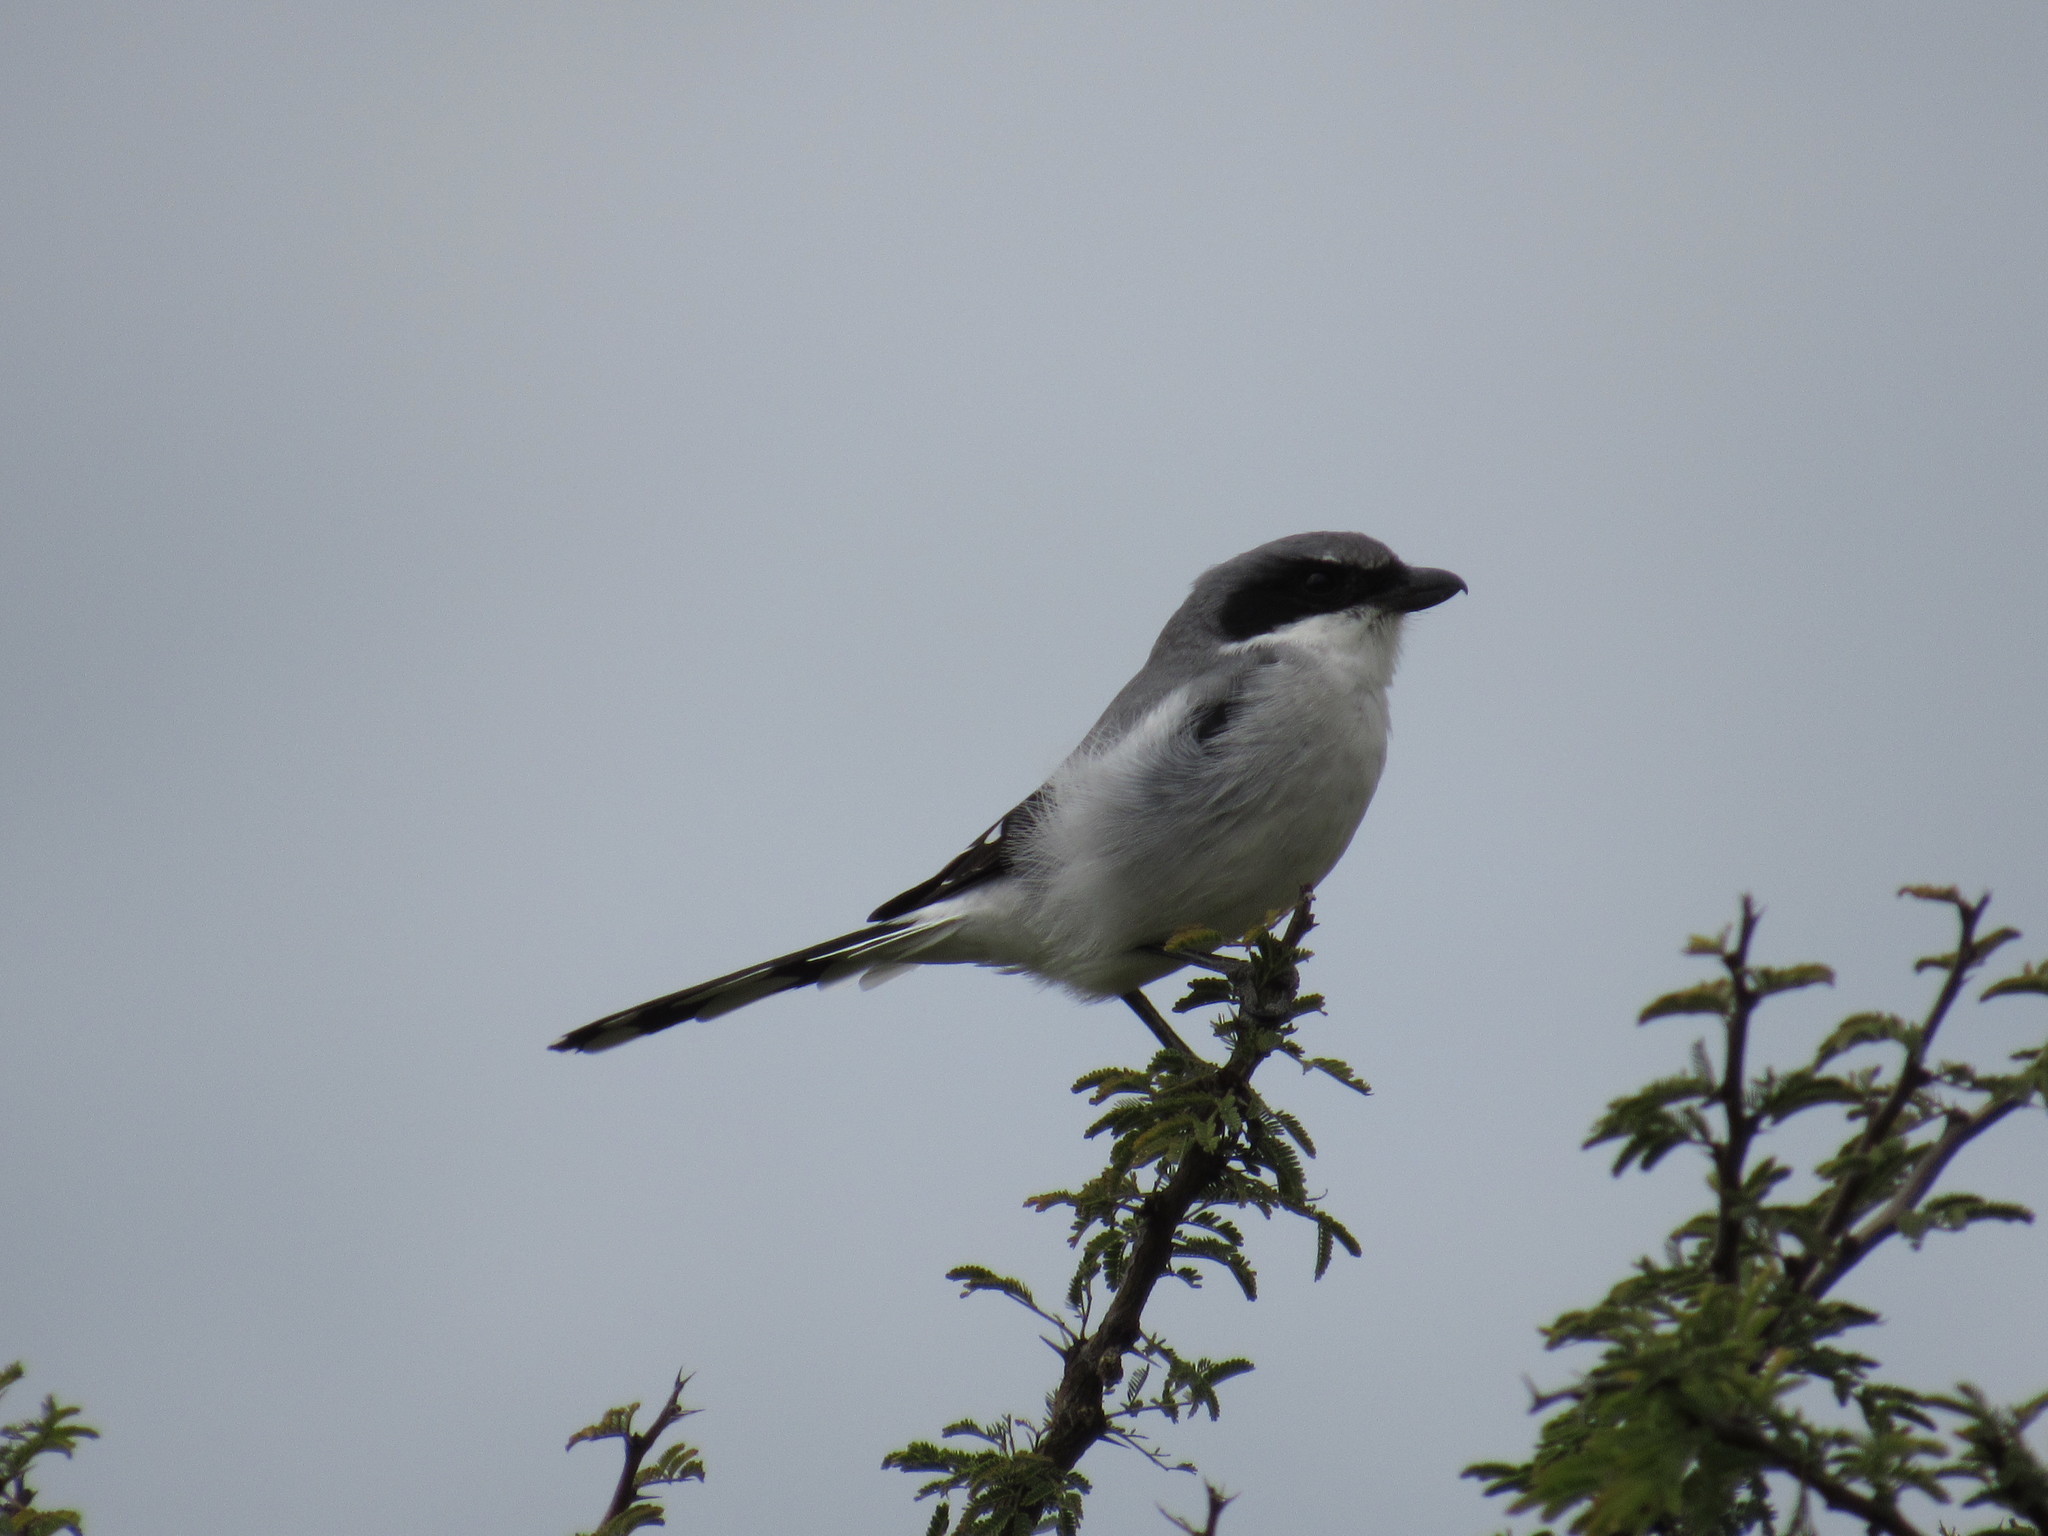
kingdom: Animalia
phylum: Chordata
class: Aves
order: Passeriformes
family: Laniidae
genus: Lanius
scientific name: Lanius ludovicianus
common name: Loggerhead shrike
